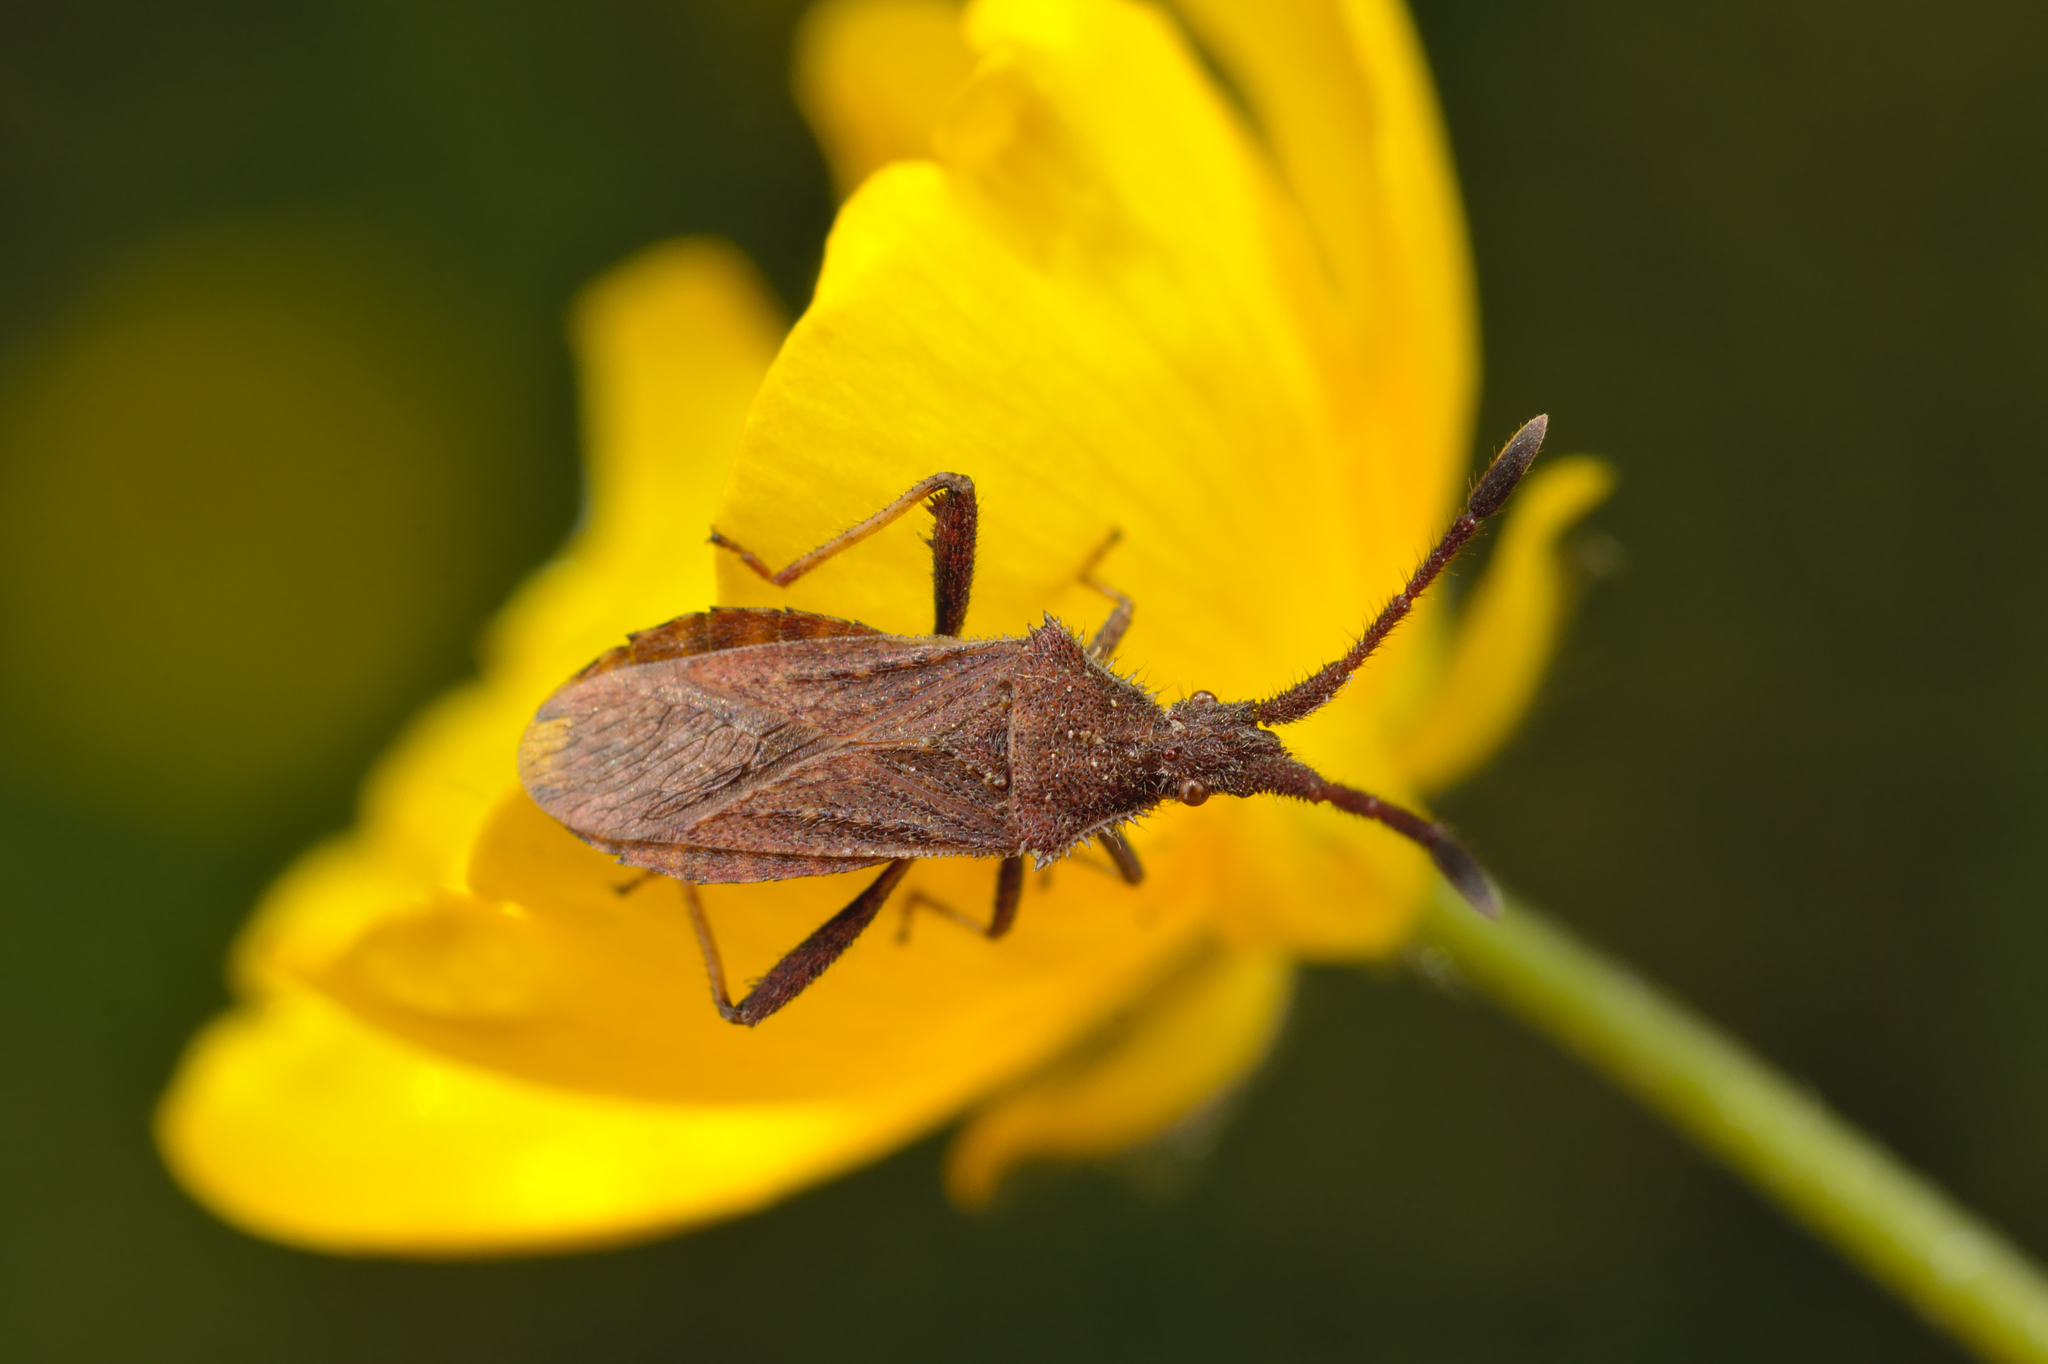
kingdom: Animalia
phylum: Arthropoda
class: Insecta
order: Hemiptera
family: Coreidae
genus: Coriomeris
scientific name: Coriomeris denticulatus
